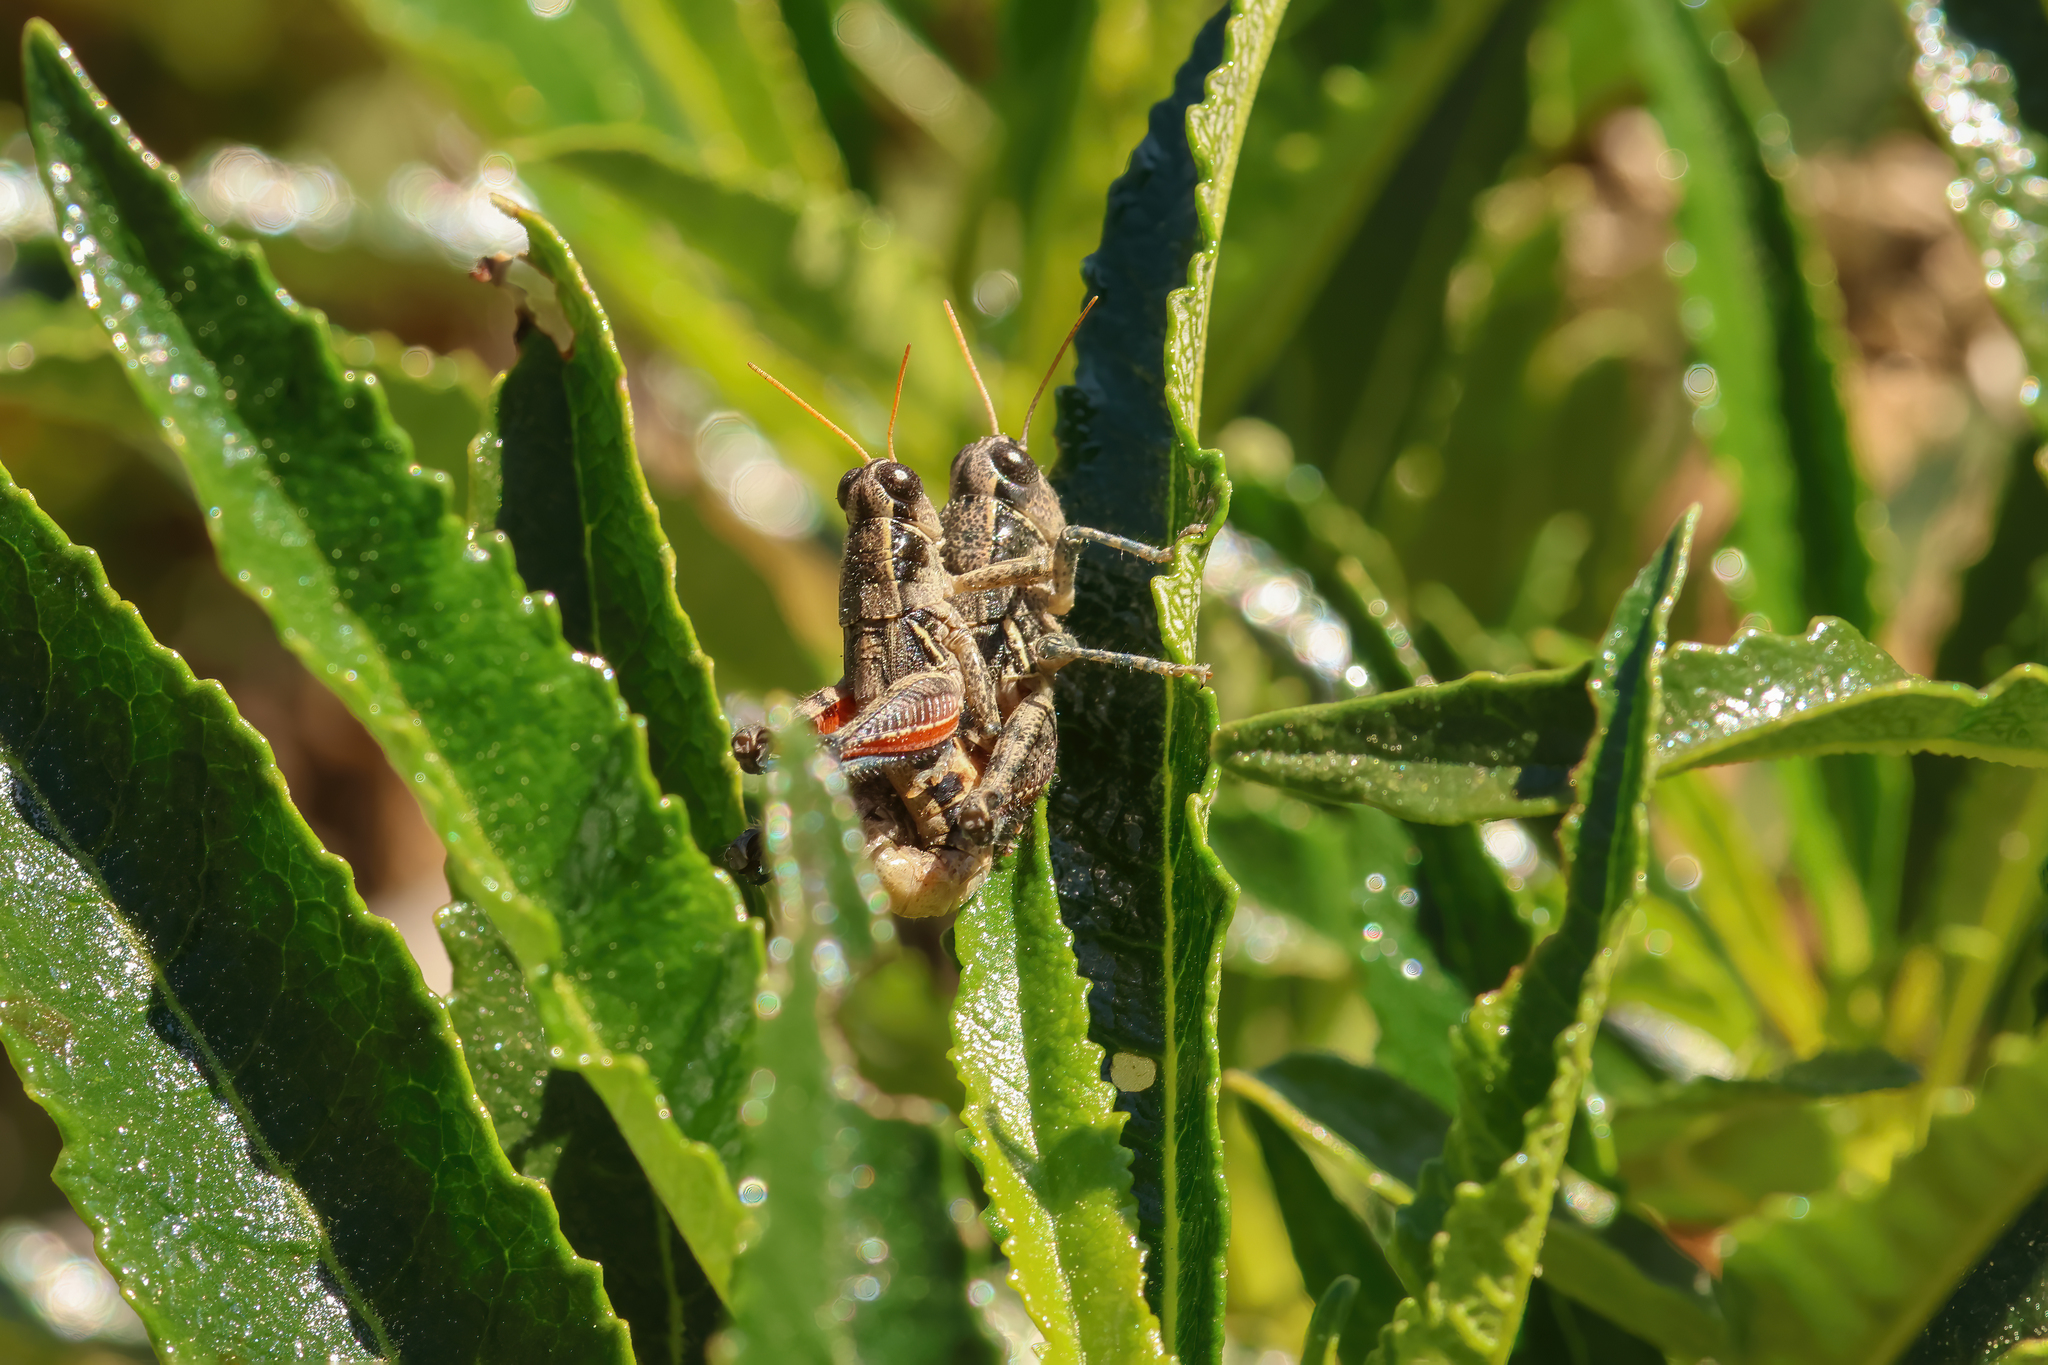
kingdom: Animalia
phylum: Arthropoda
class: Insecta
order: Orthoptera
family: Acrididae
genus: Oedaleonotus
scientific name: Oedaleonotus tenuipennis
